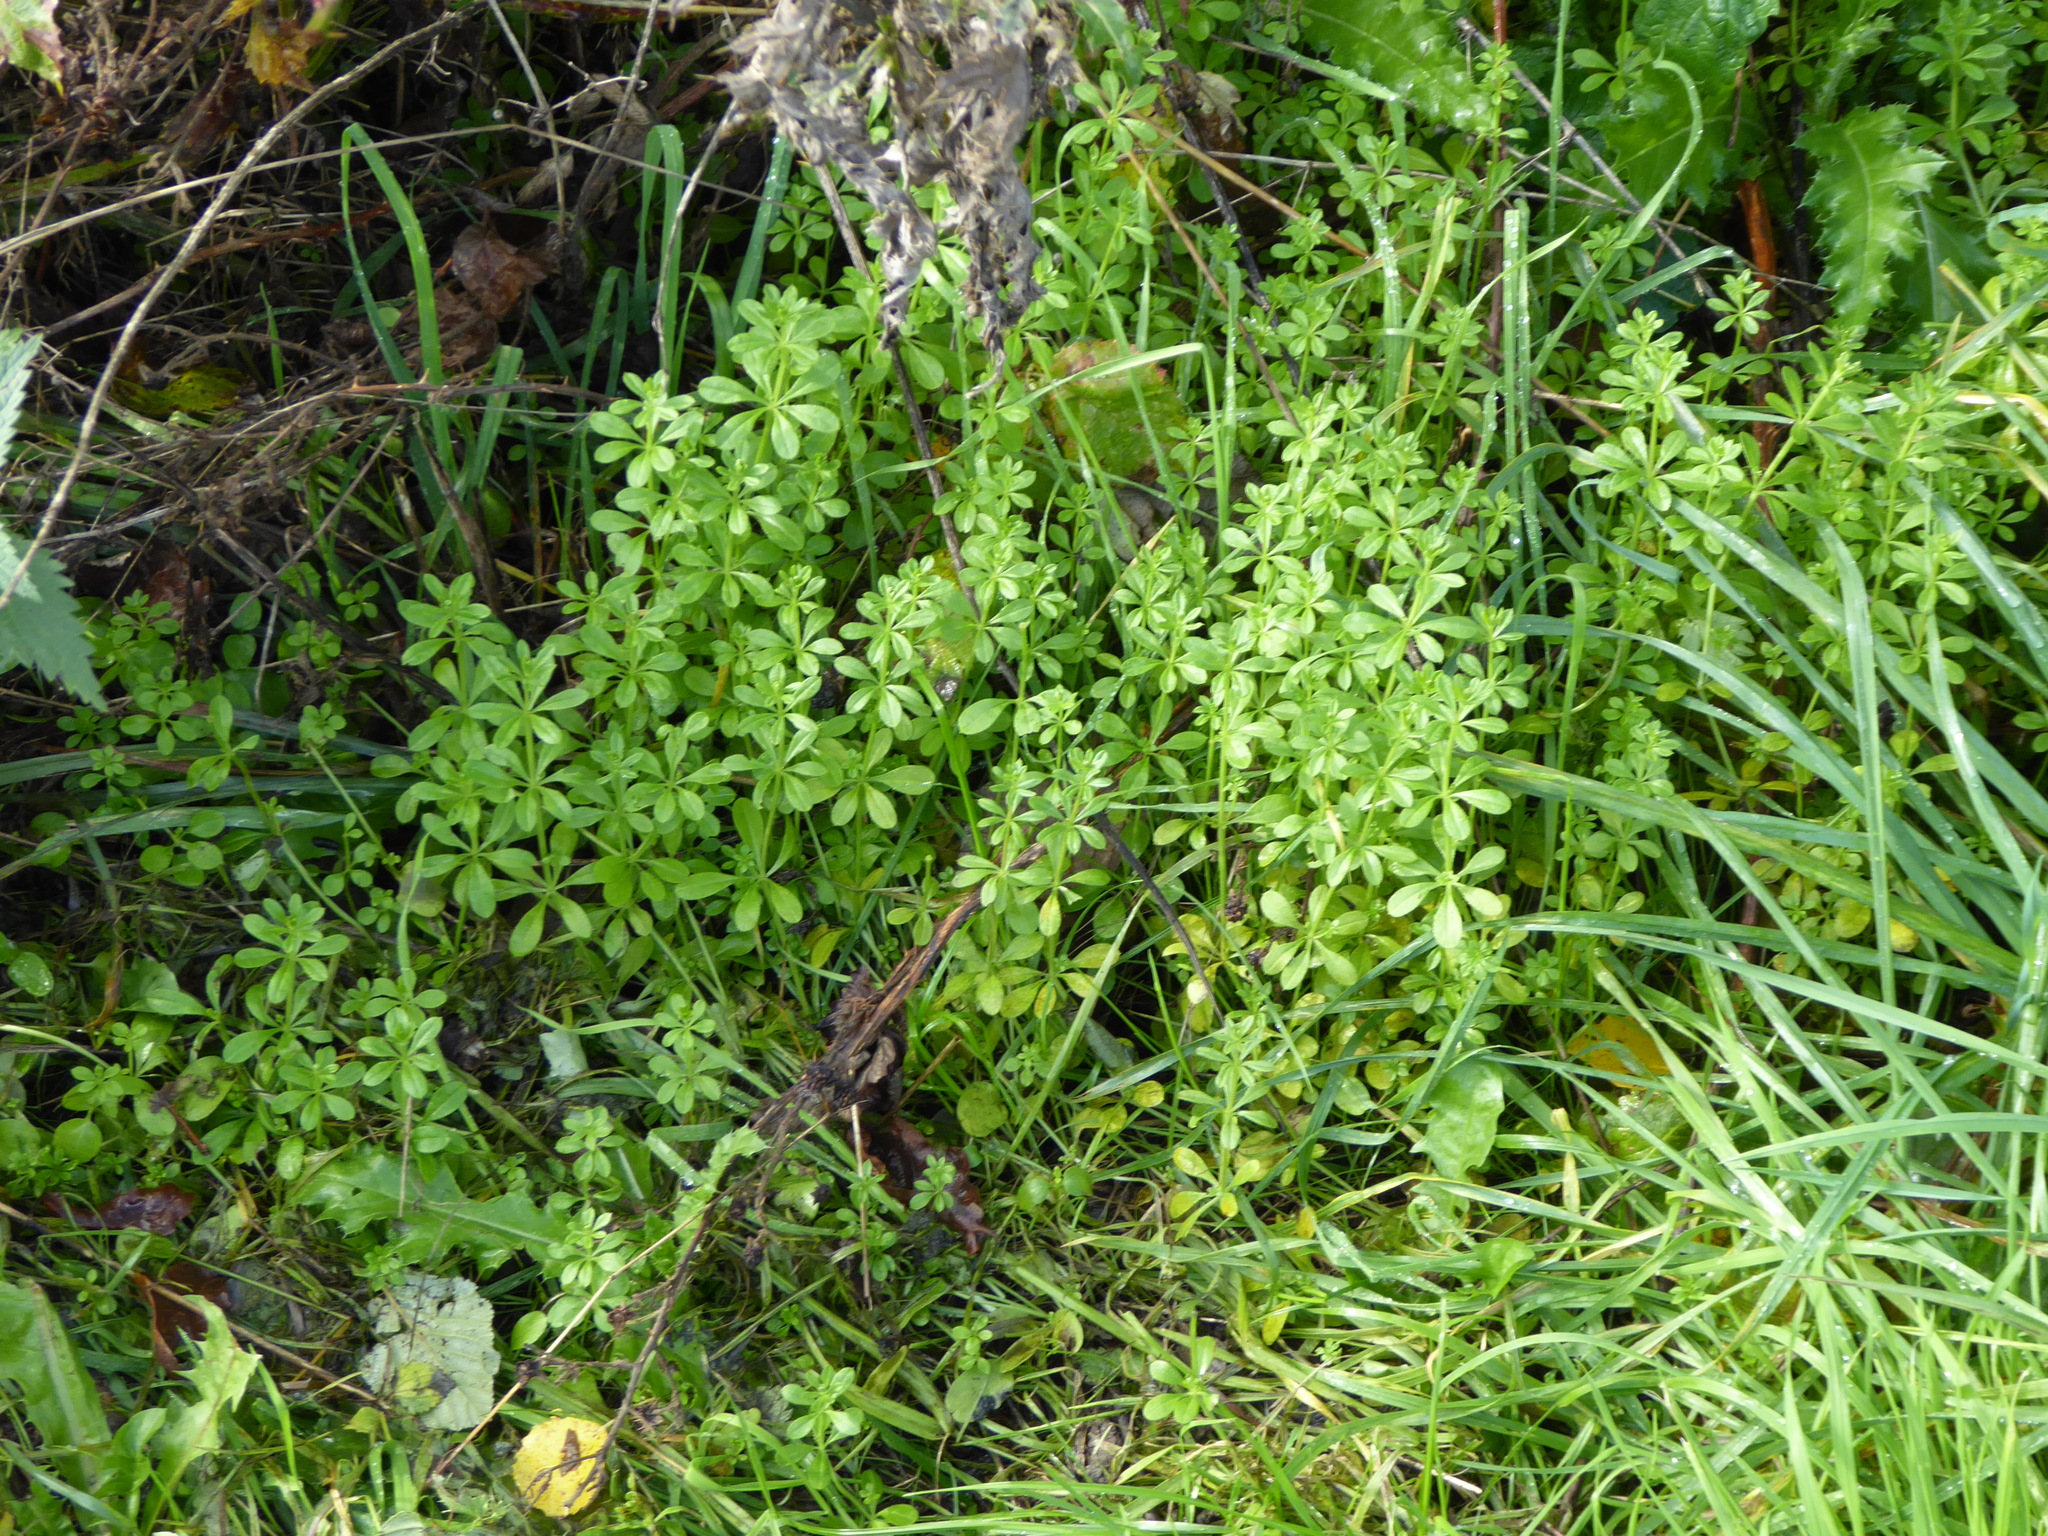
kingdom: Plantae
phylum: Tracheophyta
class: Magnoliopsida
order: Gentianales
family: Rubiaceae
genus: Galium
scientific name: Galium aparine
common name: Cleavers
